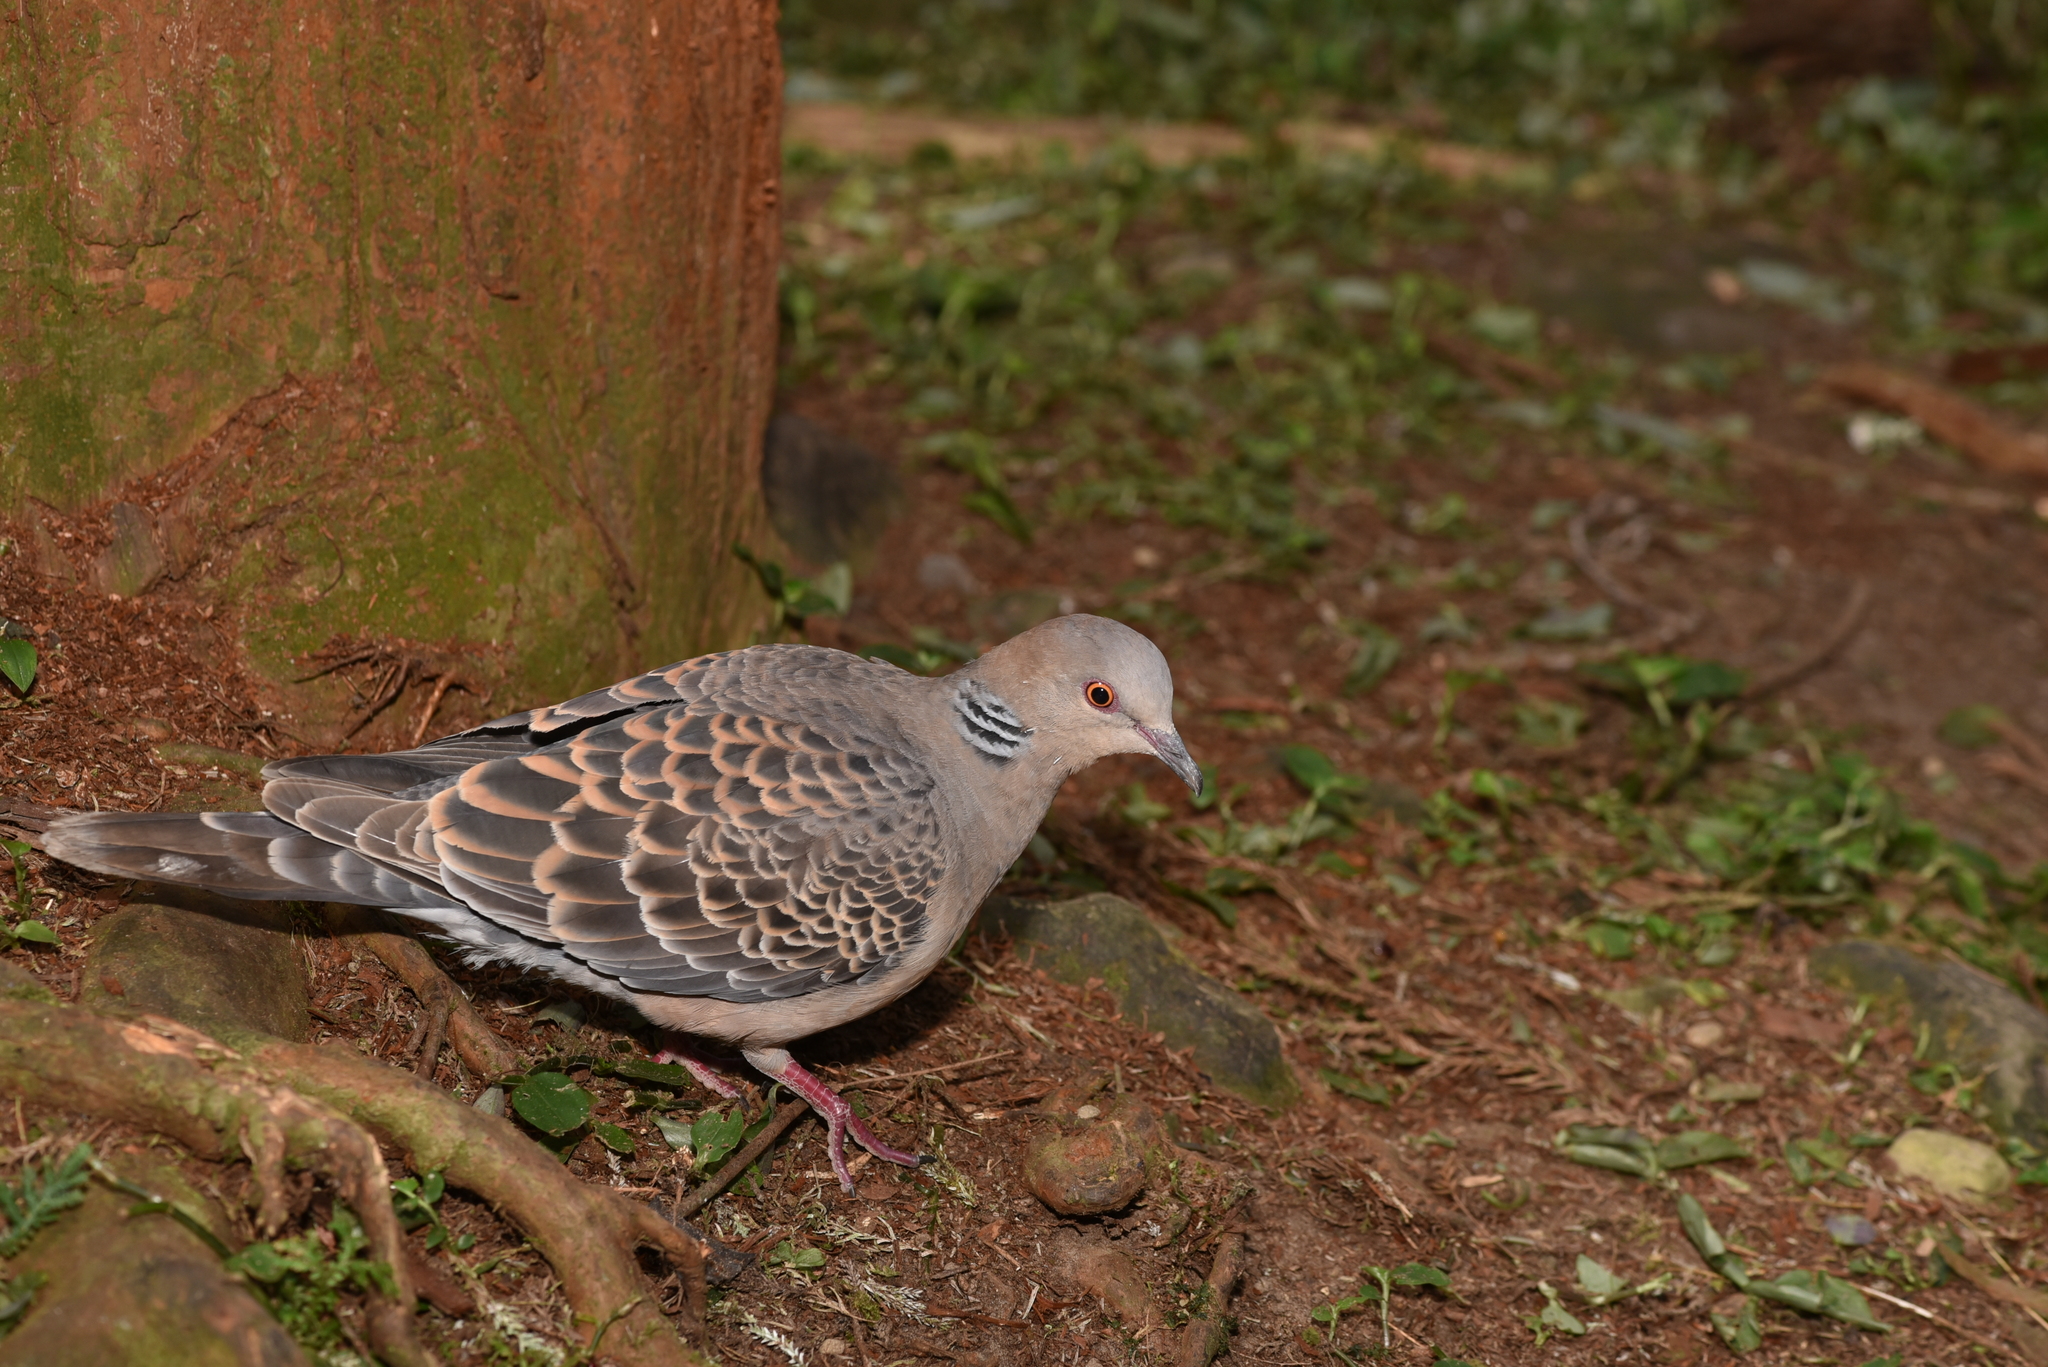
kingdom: Animalia
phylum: Chordata
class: Aves
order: Columbiformes
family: Columbidae
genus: Streptopelia
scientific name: Streptopelia orientalis
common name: Oriental turtle dove
